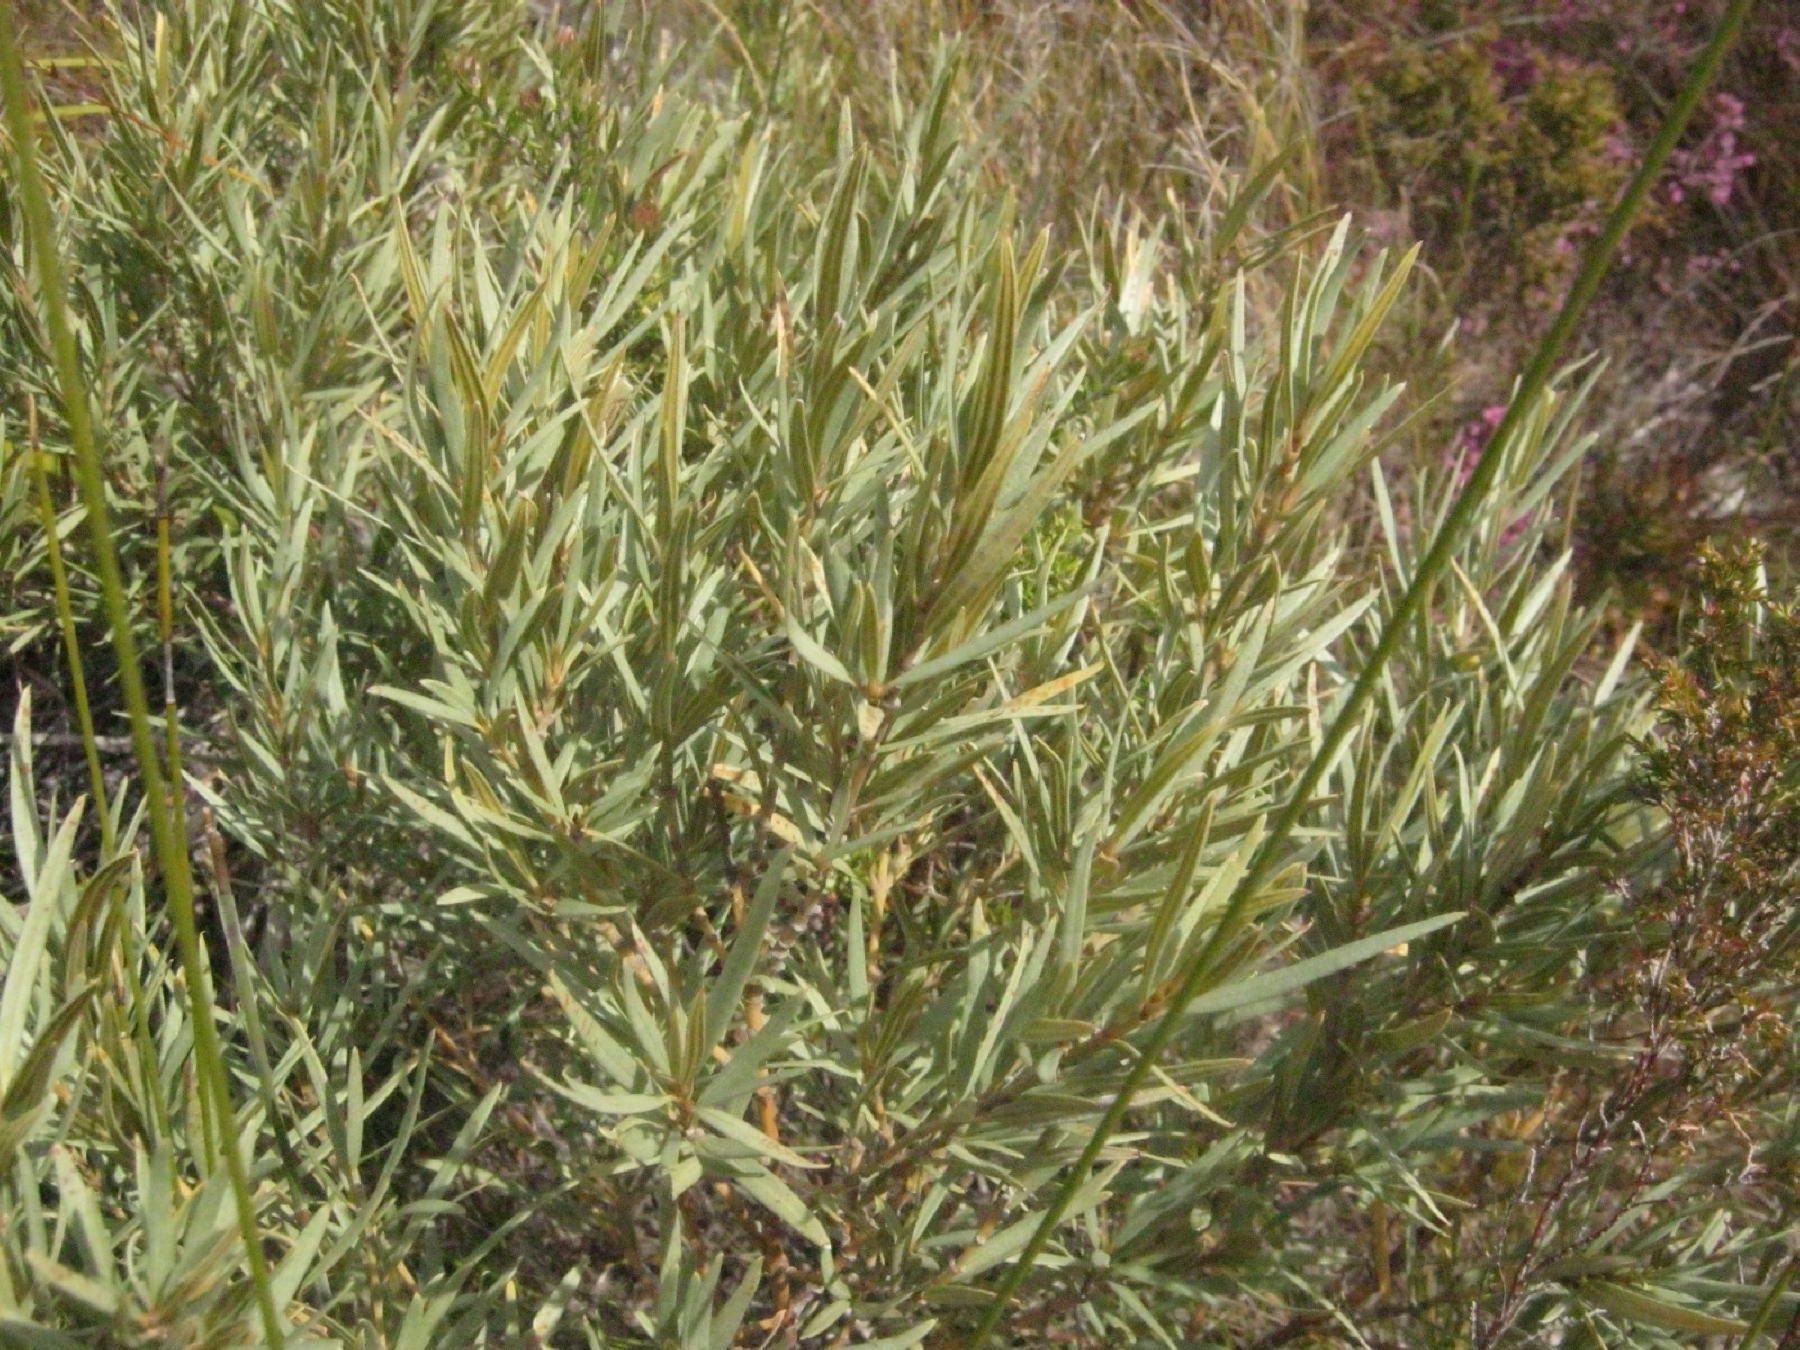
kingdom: Plantae
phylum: Tracheophyta
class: Magnoliopsida
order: Cornales
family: Grubbiaceae
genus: Grubbia
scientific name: Grubbia tomentosa
